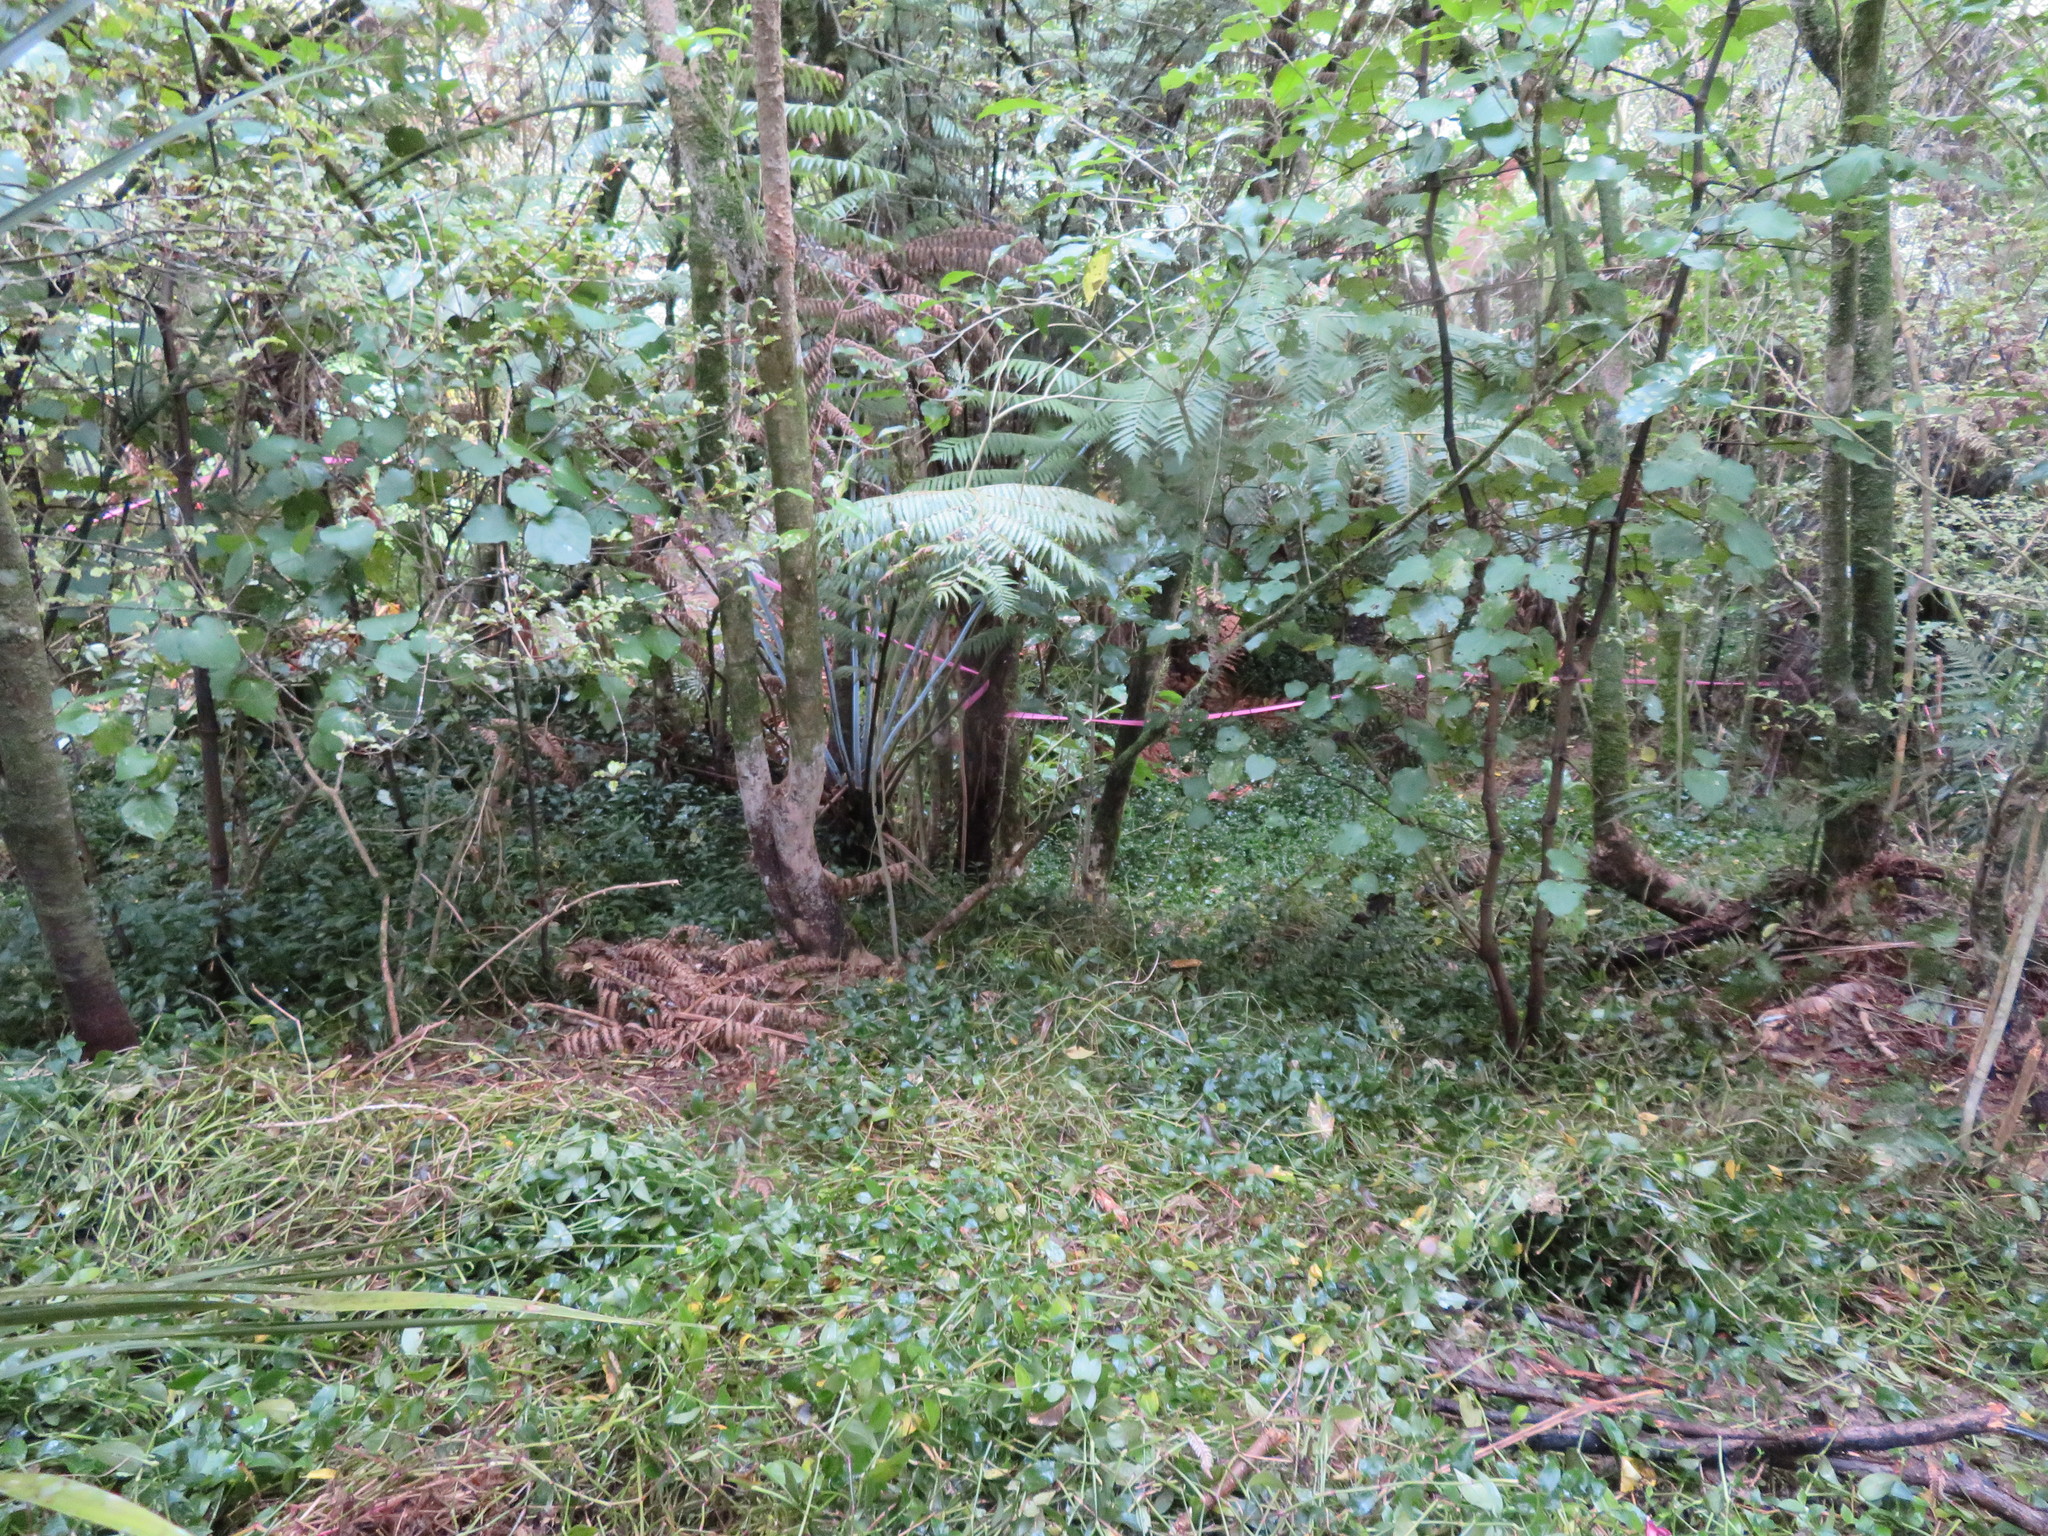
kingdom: Plantae
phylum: Tracheophyta
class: Magnoliopsida
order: Piperales
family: Piperaceae
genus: Macropiper
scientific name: Macropiper excelsum
